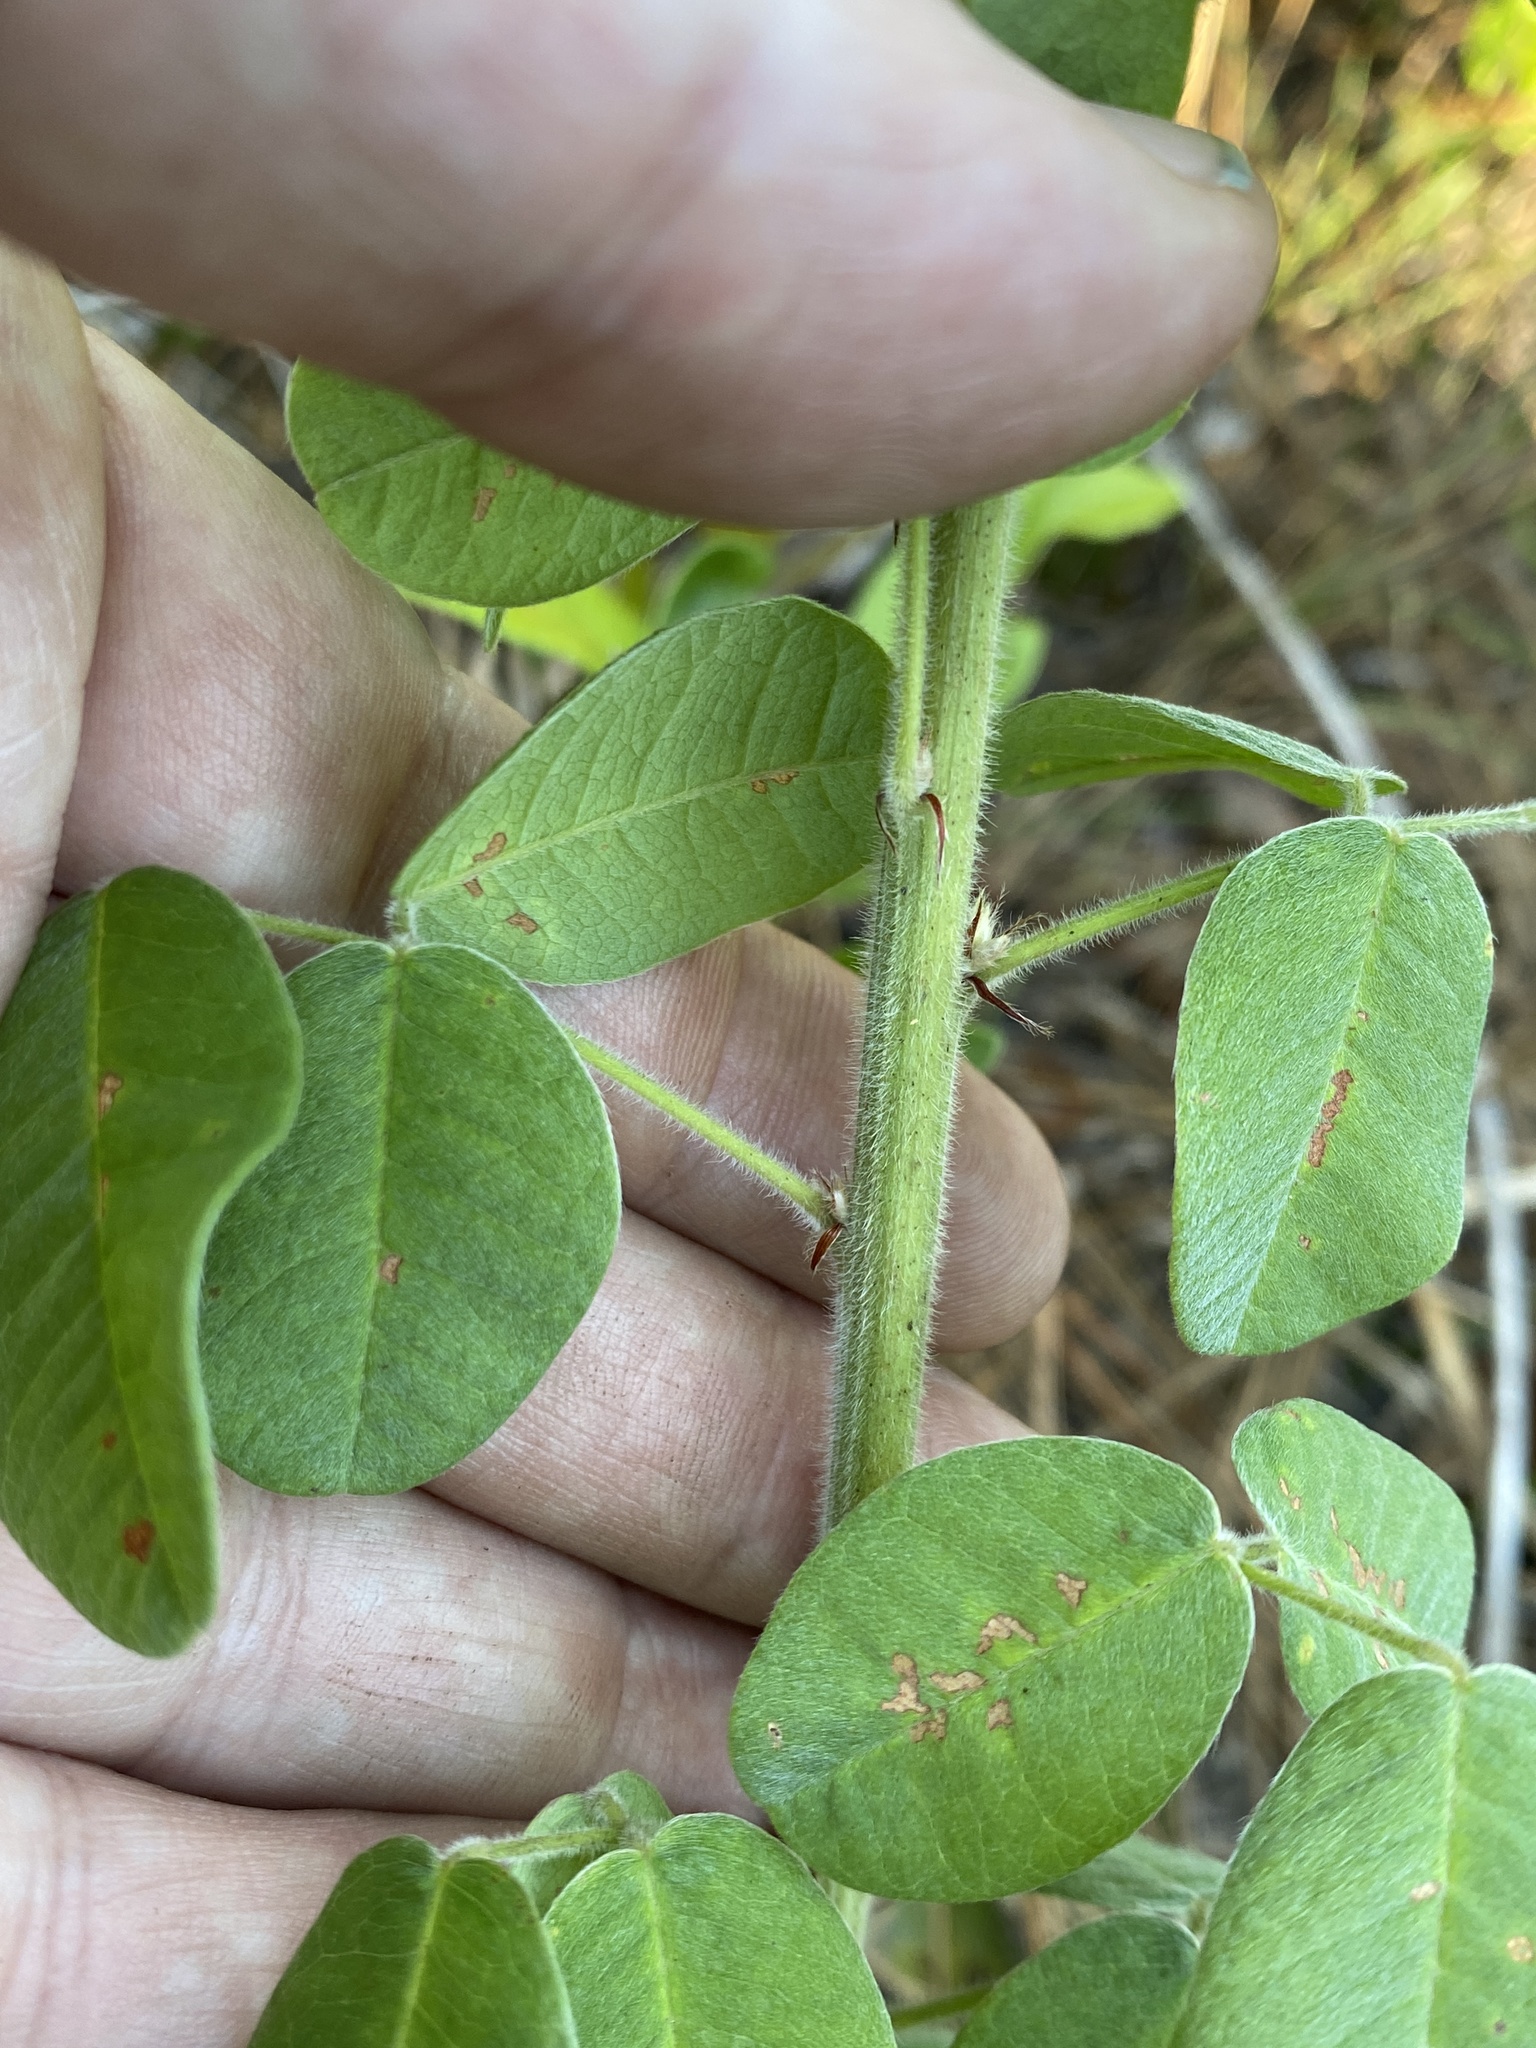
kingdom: Plantae
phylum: Tracheophyta
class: Magnoliopsida
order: Fabales
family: Fabaceae
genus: Lespedeza
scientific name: Lespedeza hirta
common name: Hairy lespedeza
